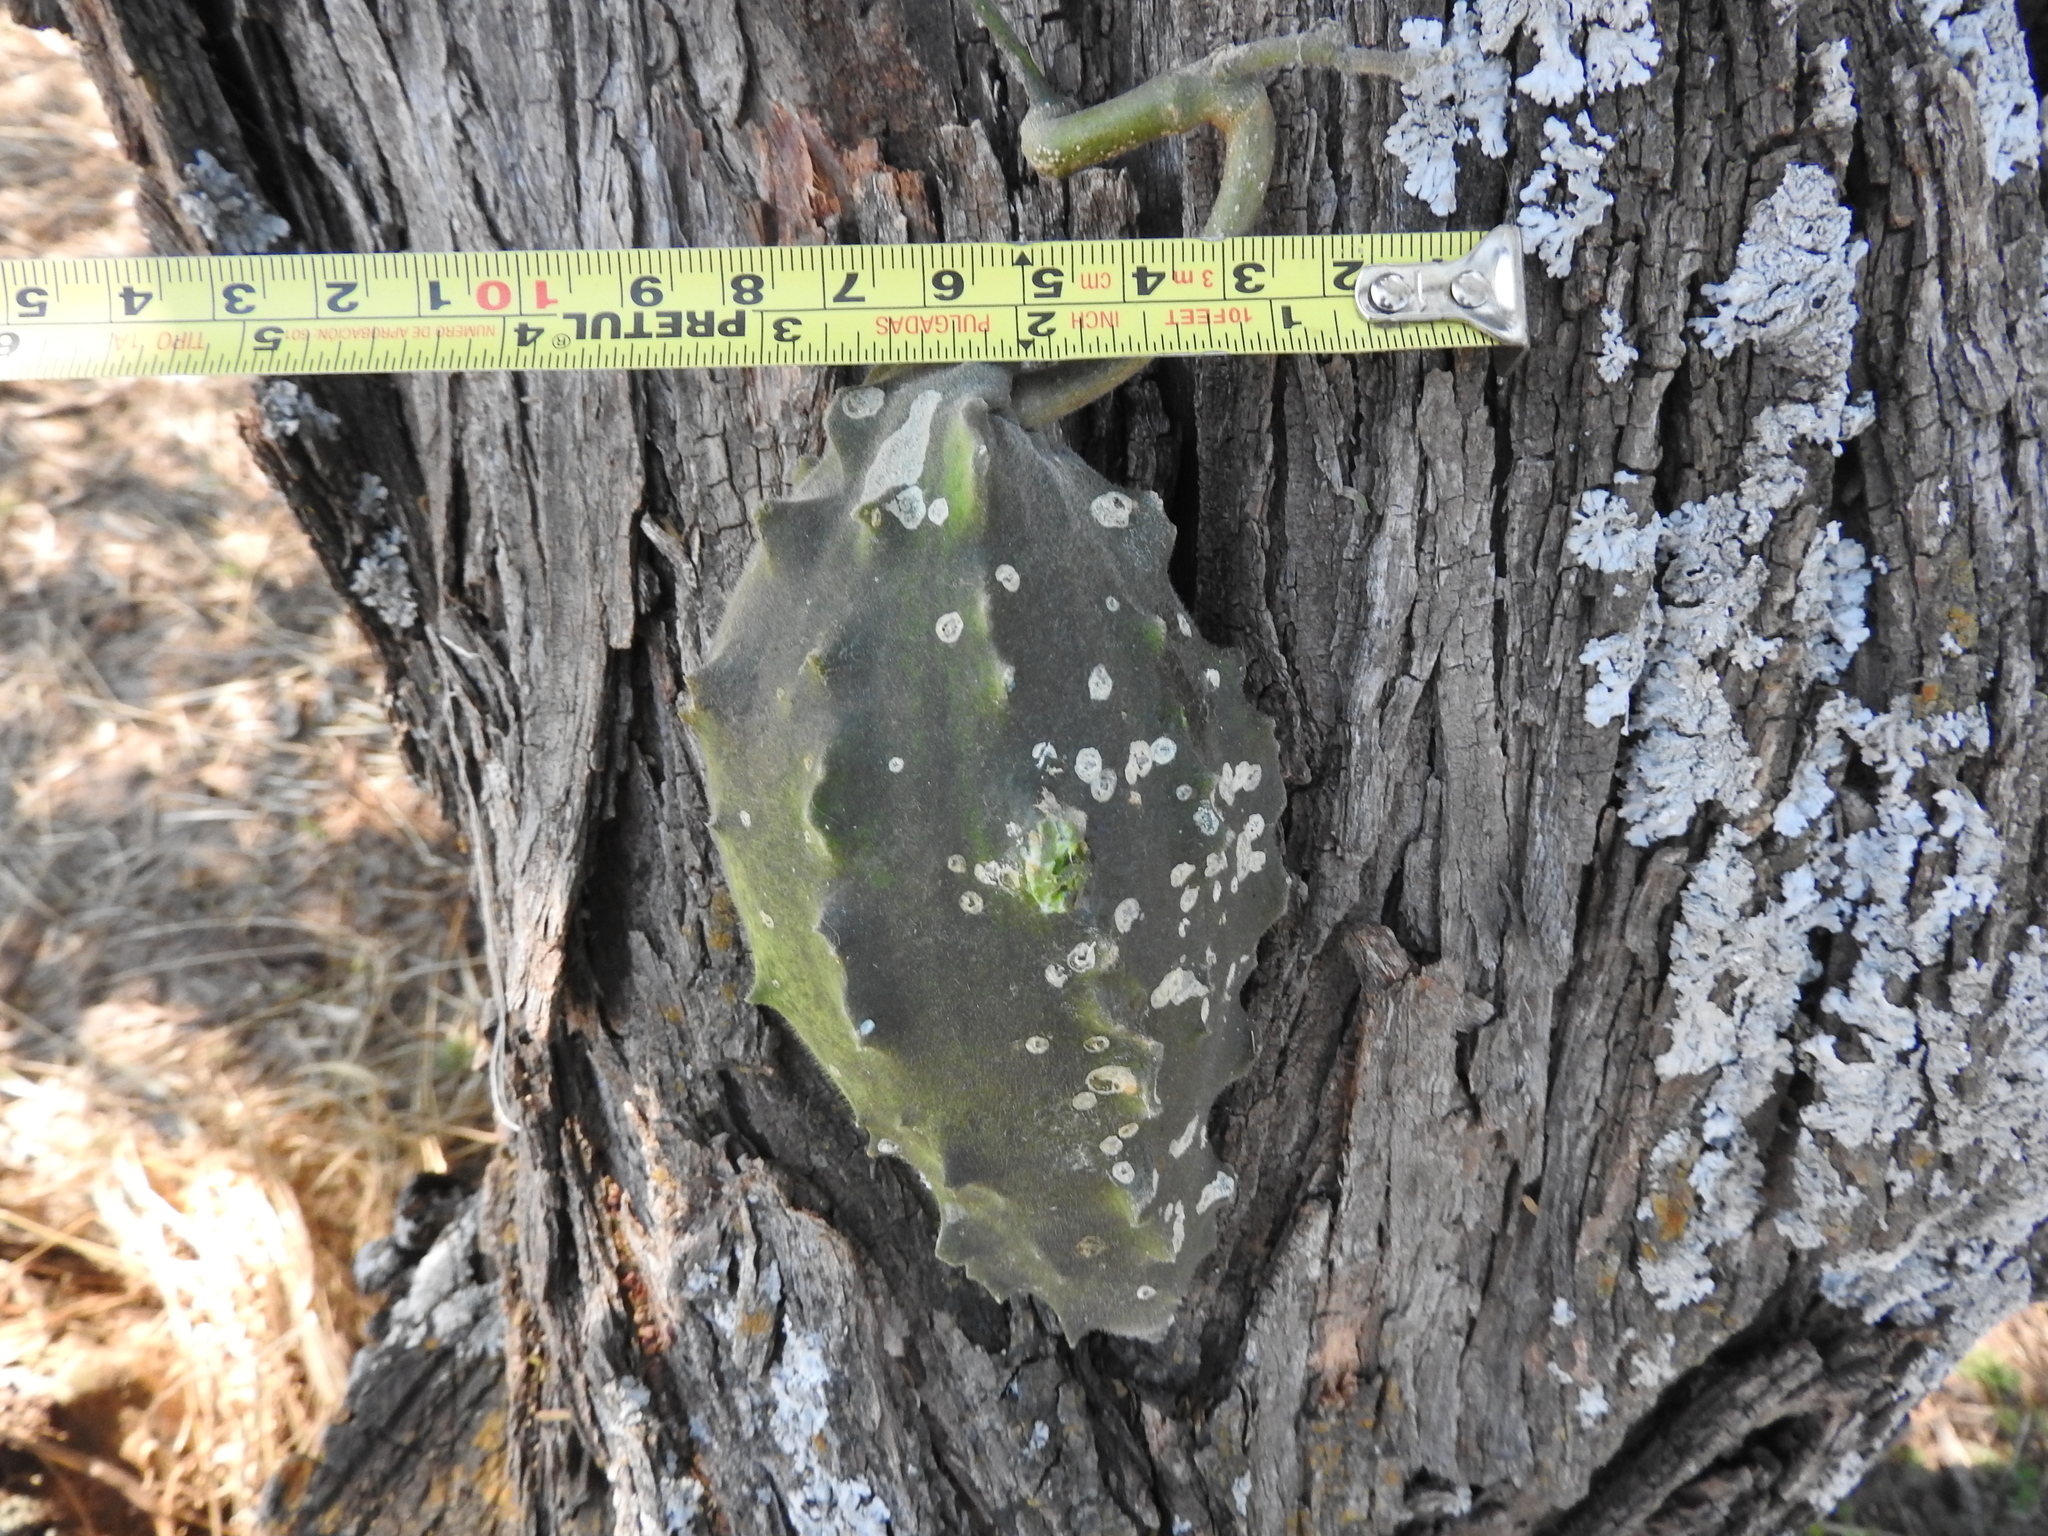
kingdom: Plantae
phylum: Tracheophyta
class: Magnoliopsida
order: Gentianales
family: Apocynaceae
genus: Gonolobus
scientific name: Gonolobus grandiflorus
